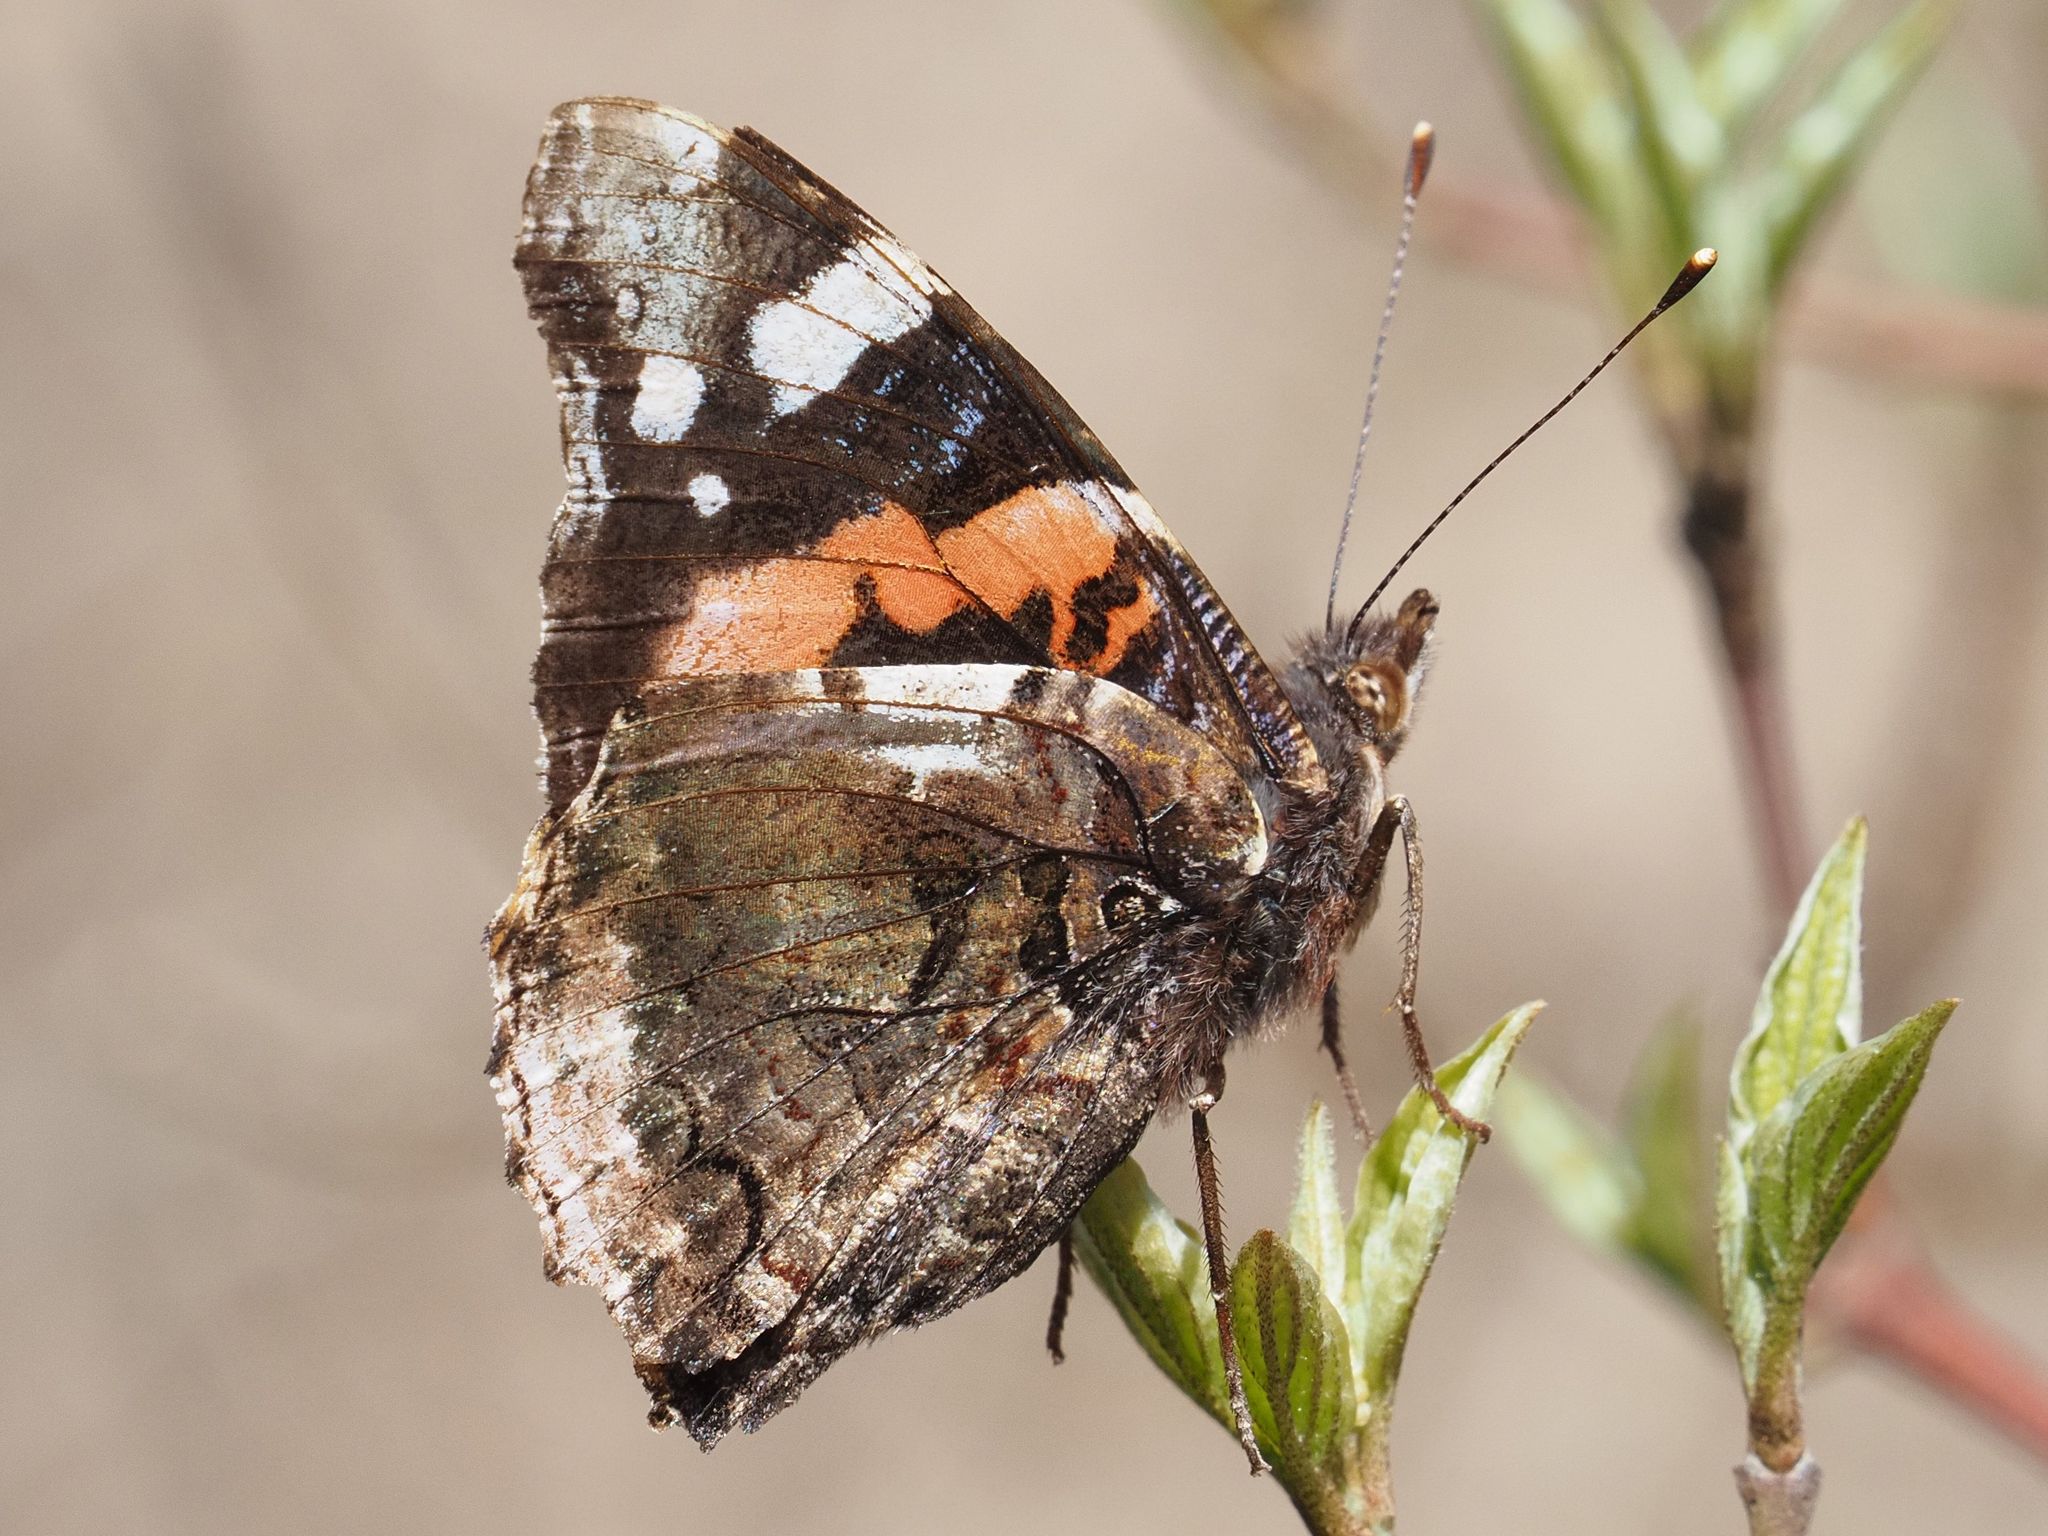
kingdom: Animalia
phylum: Arthropoda
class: Insecta
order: Lepidoptera
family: Nymphalidae
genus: Vanessa
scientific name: Vanessa atalanta
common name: Red admiral
